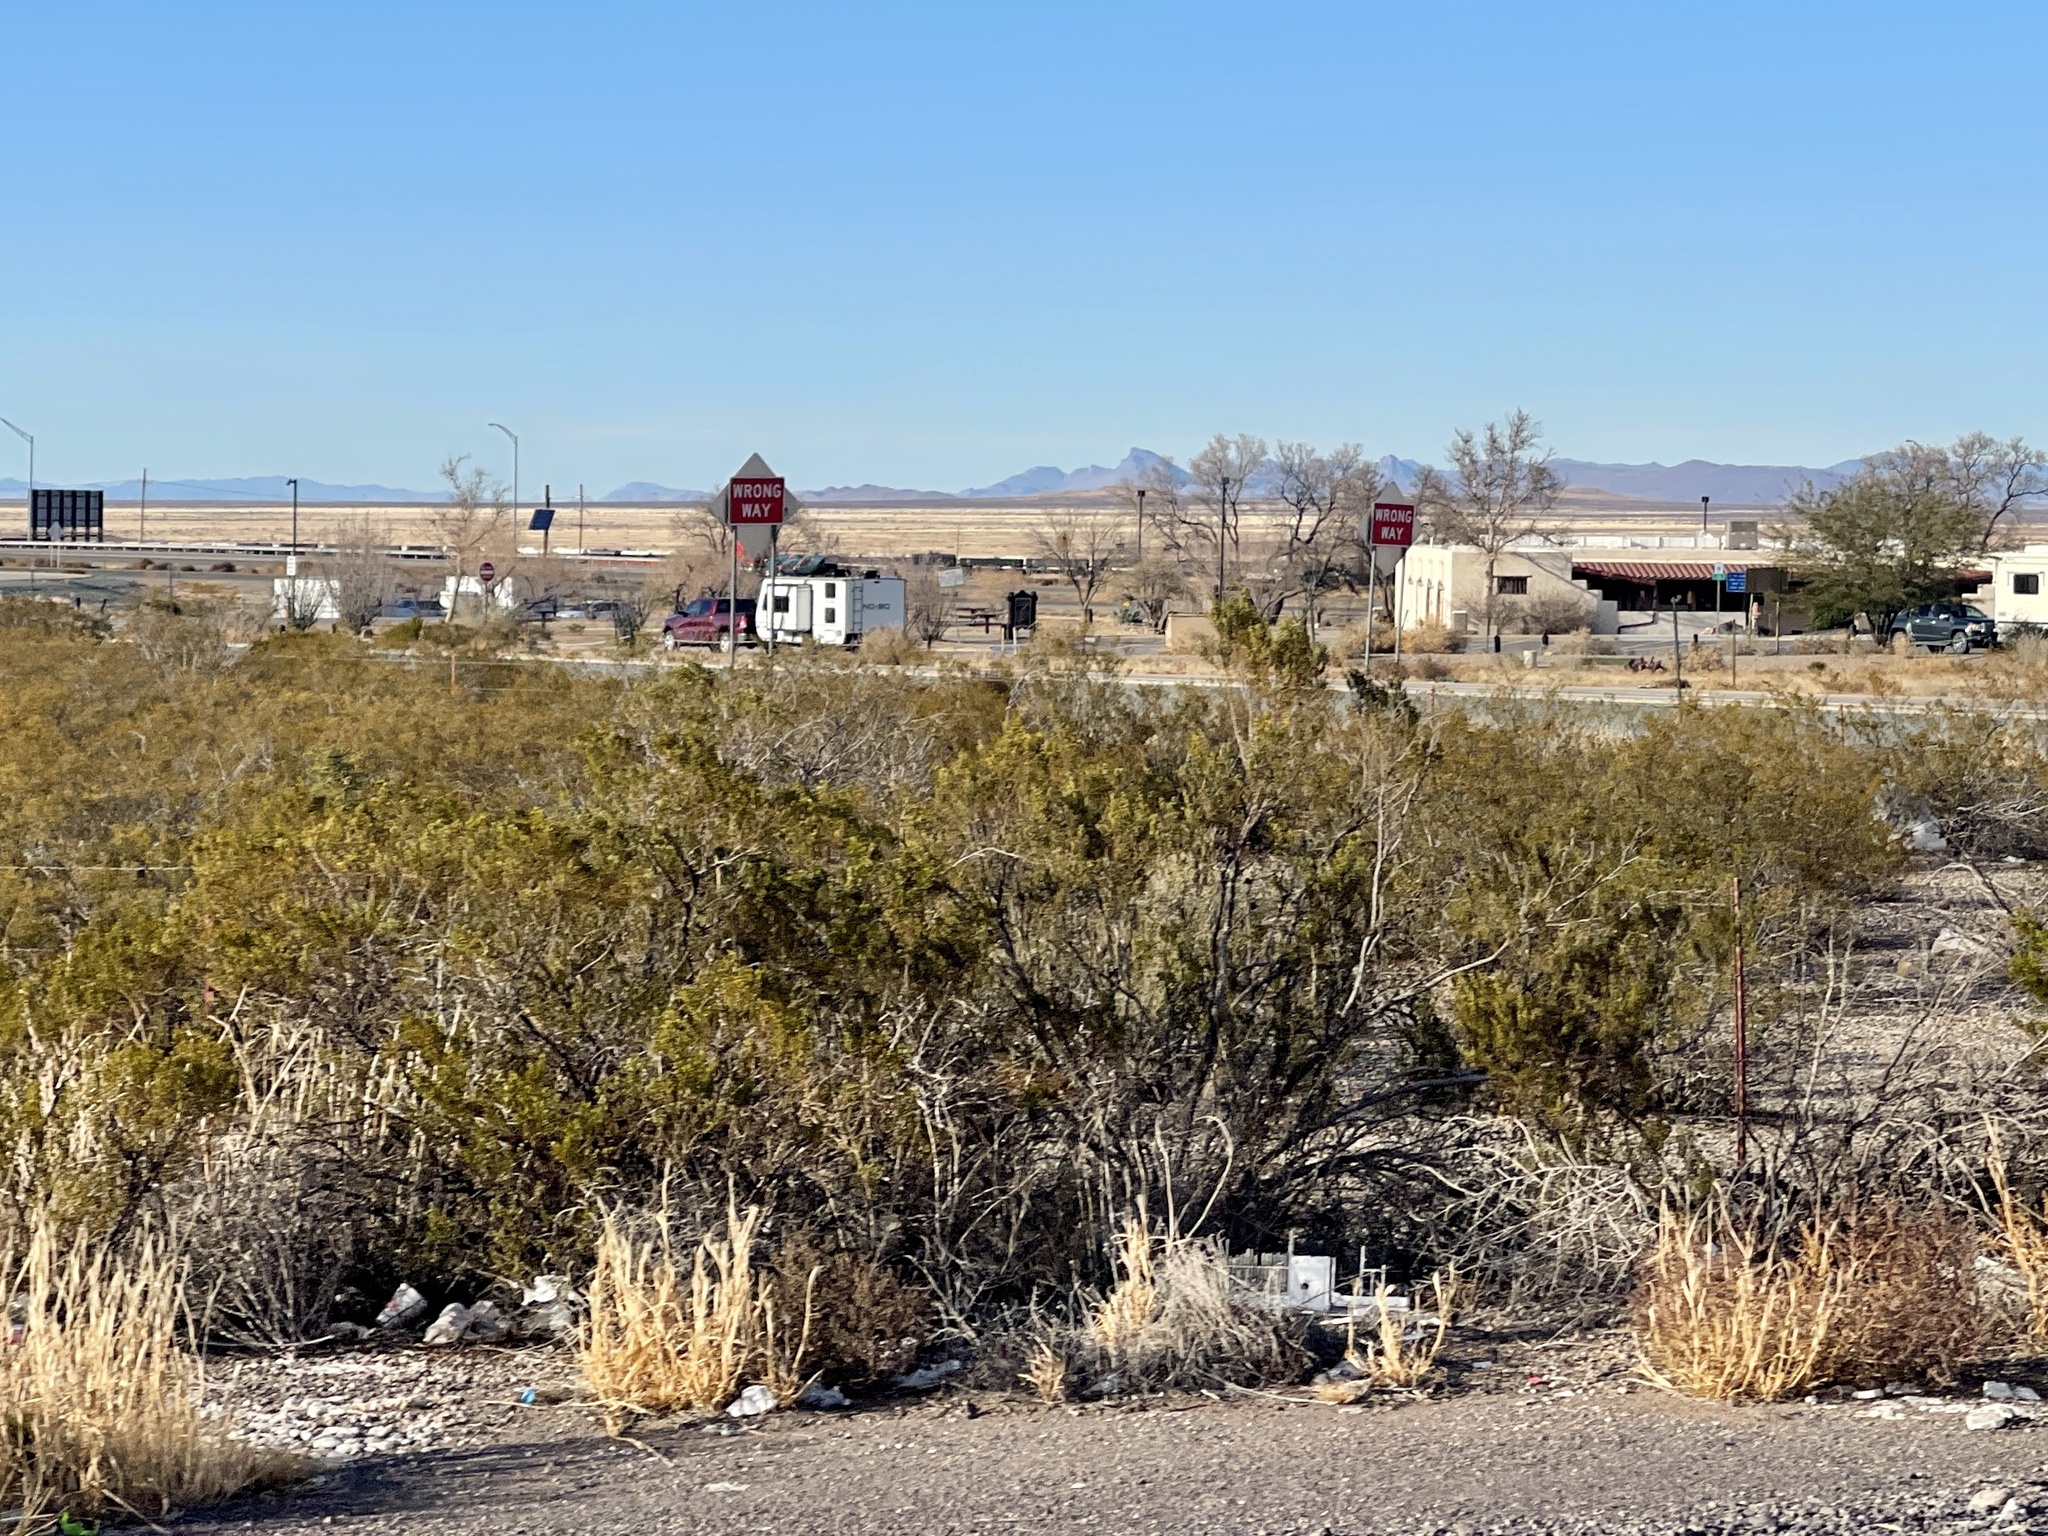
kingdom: Plantae
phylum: Tracheophyta
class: Magnoliopsida
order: Zygophyllales
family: Zygophyllaceae
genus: Larrea
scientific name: Larrea tridentata
